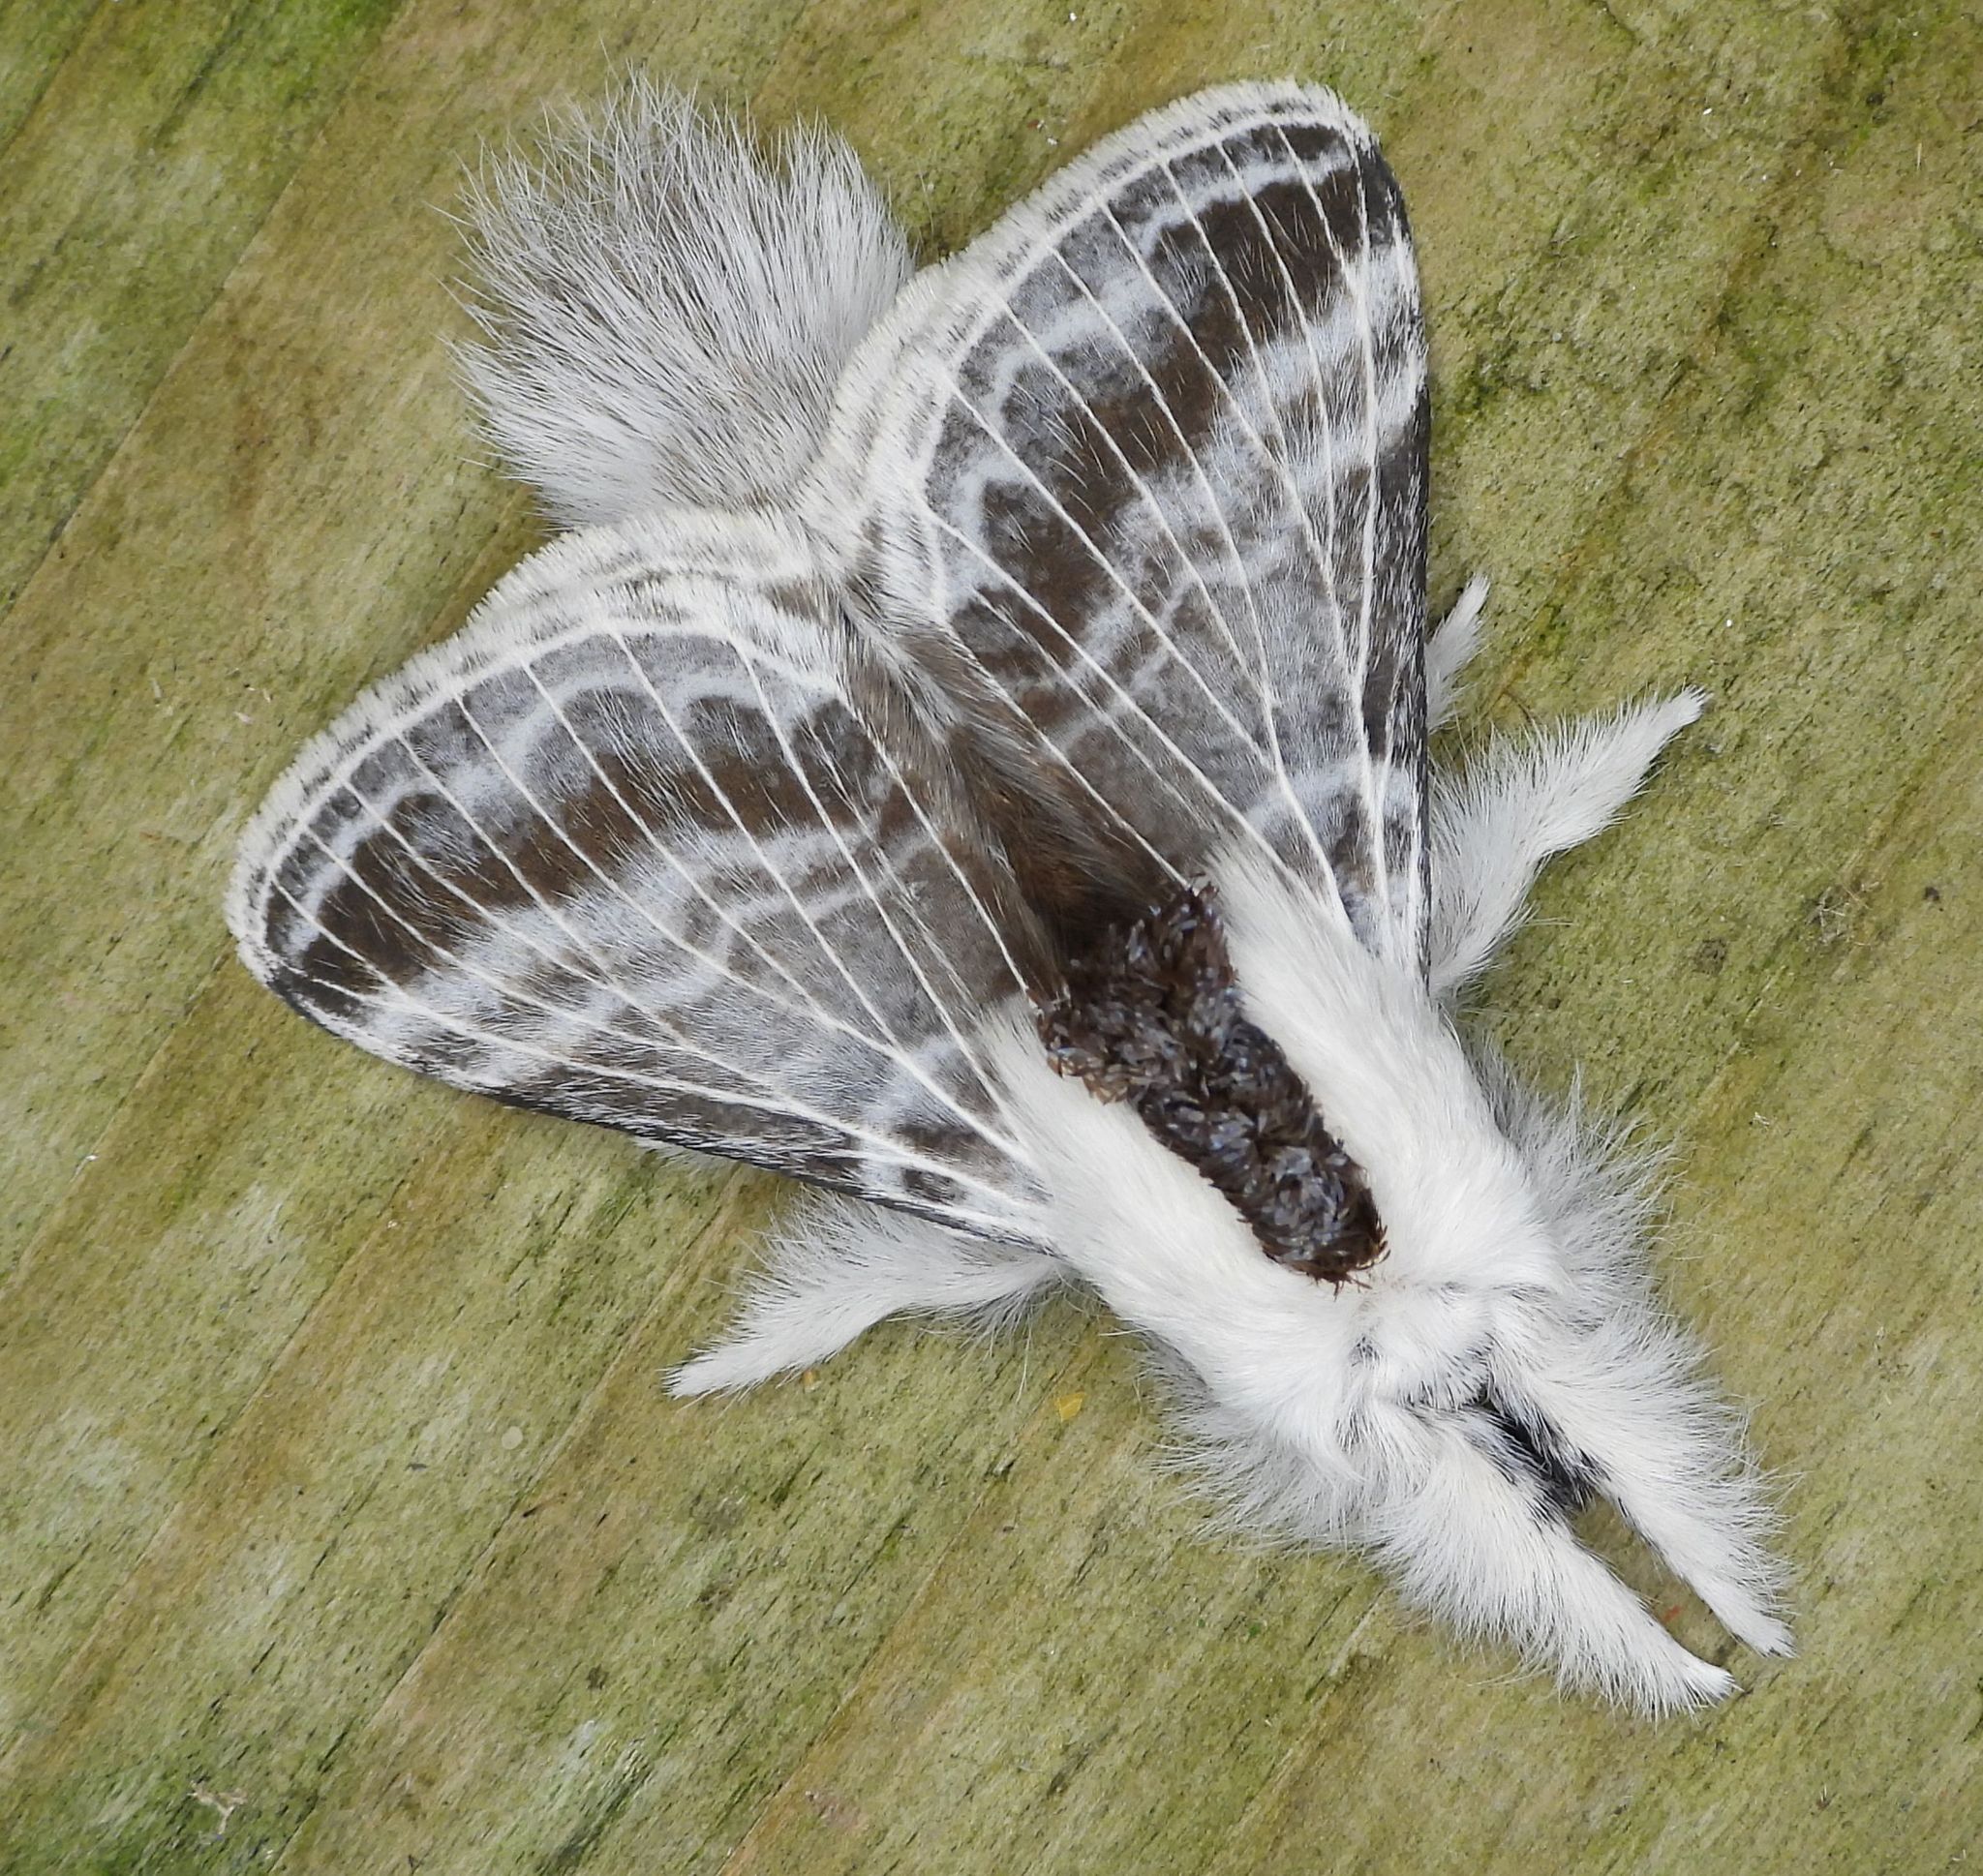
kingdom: Animalia
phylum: Arthropoda
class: Insecta
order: Lepidoptera
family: Lasiocampidae
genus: Tolype
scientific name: Tolype velleda
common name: Large tolype moth
